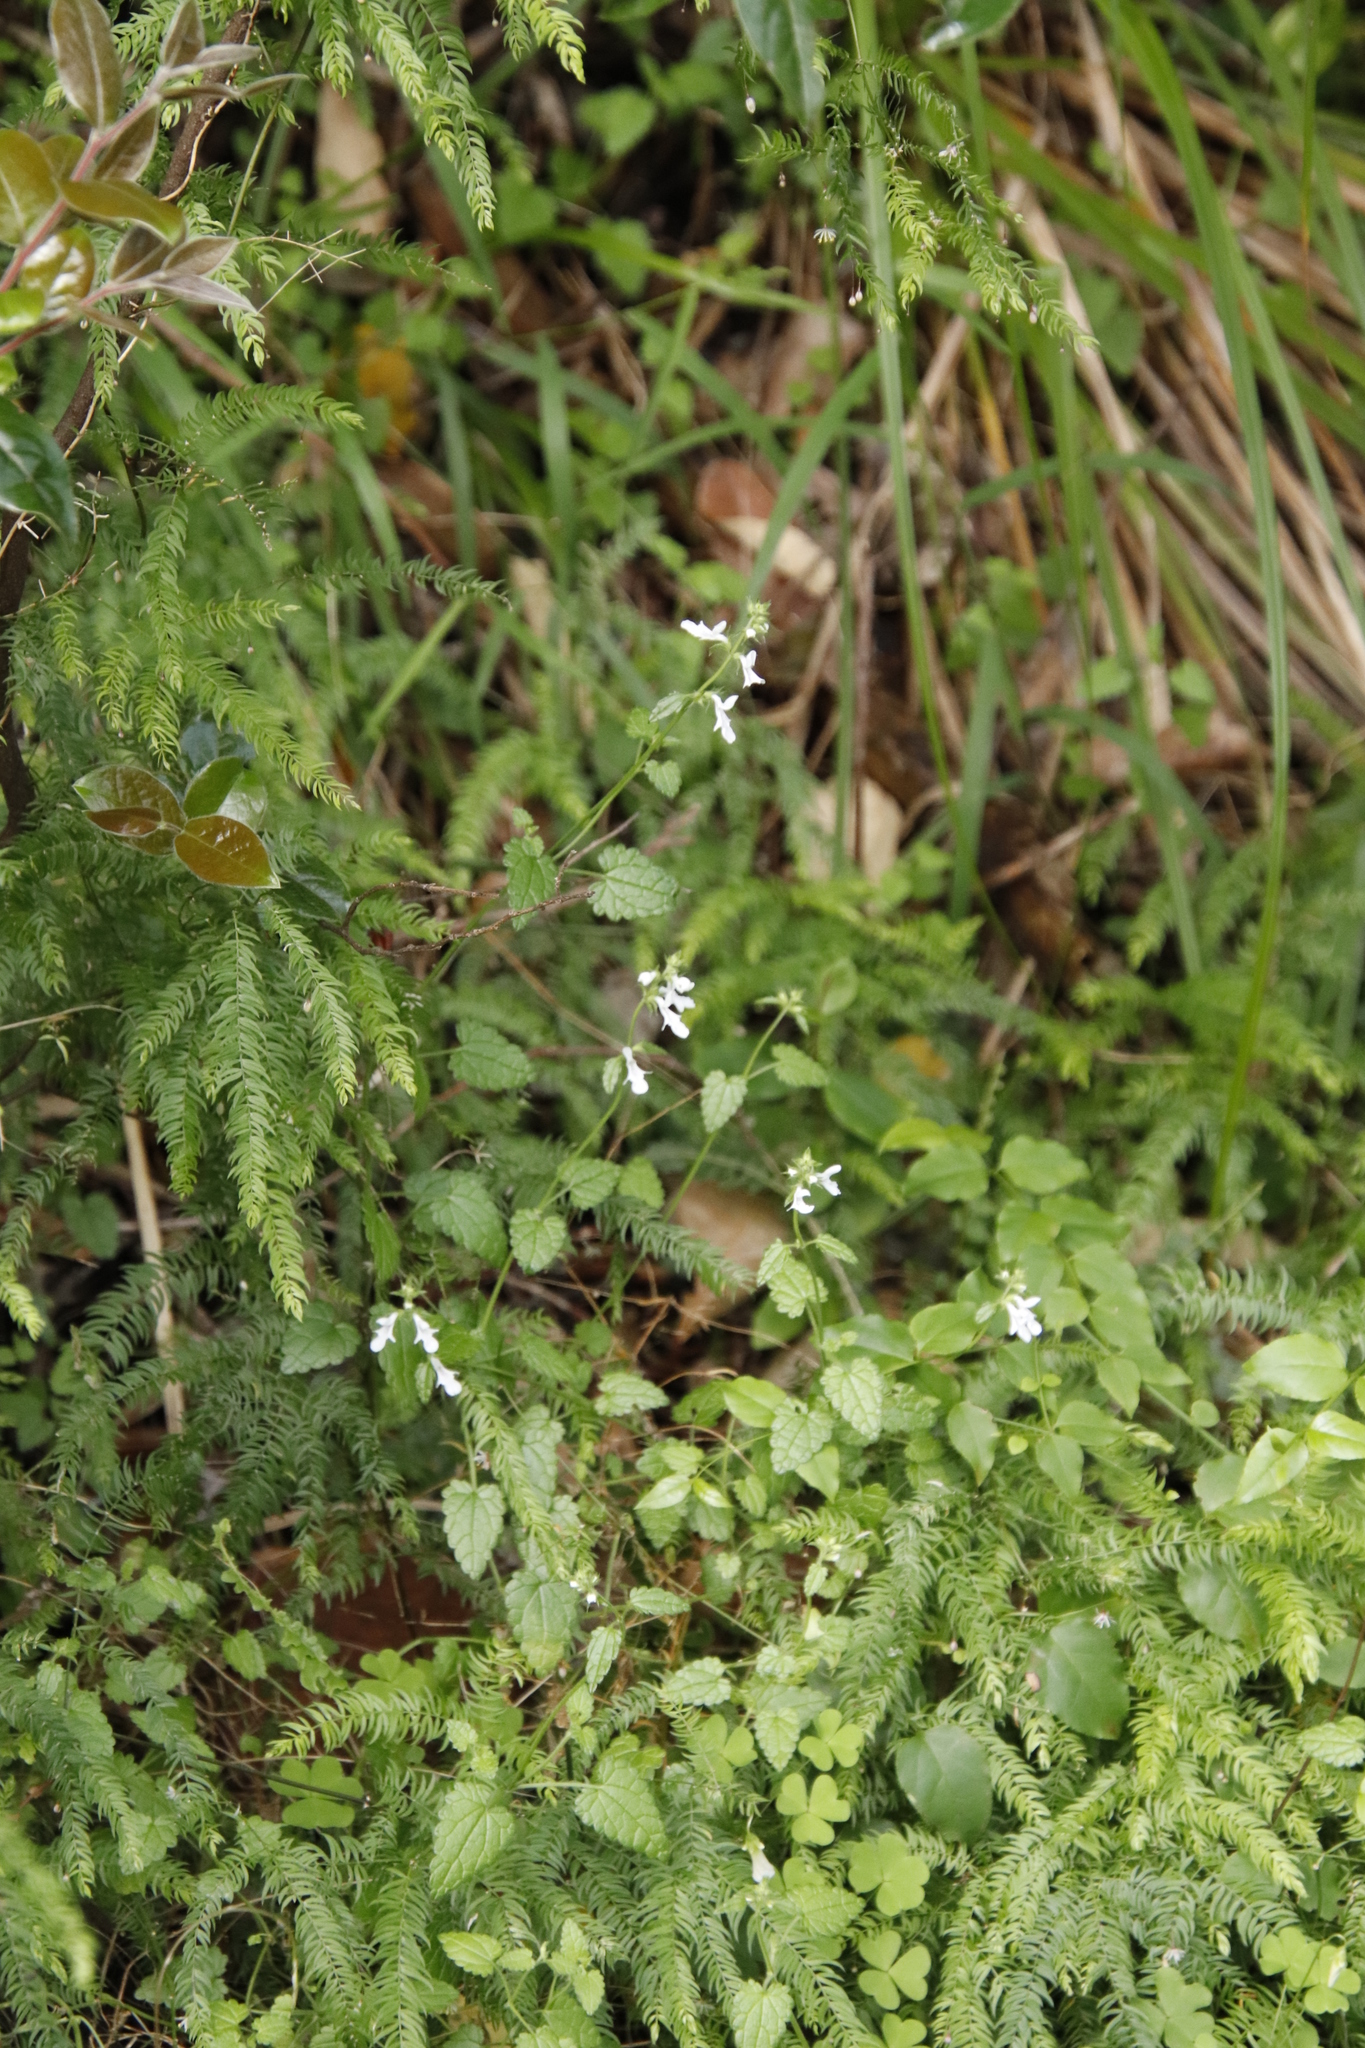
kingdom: Plantae
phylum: Tracheophyta
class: Liliopsida
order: Asparagales
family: Asparagaceae
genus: Asparagus
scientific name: Asparagus scandens
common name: Asparagus-fern
